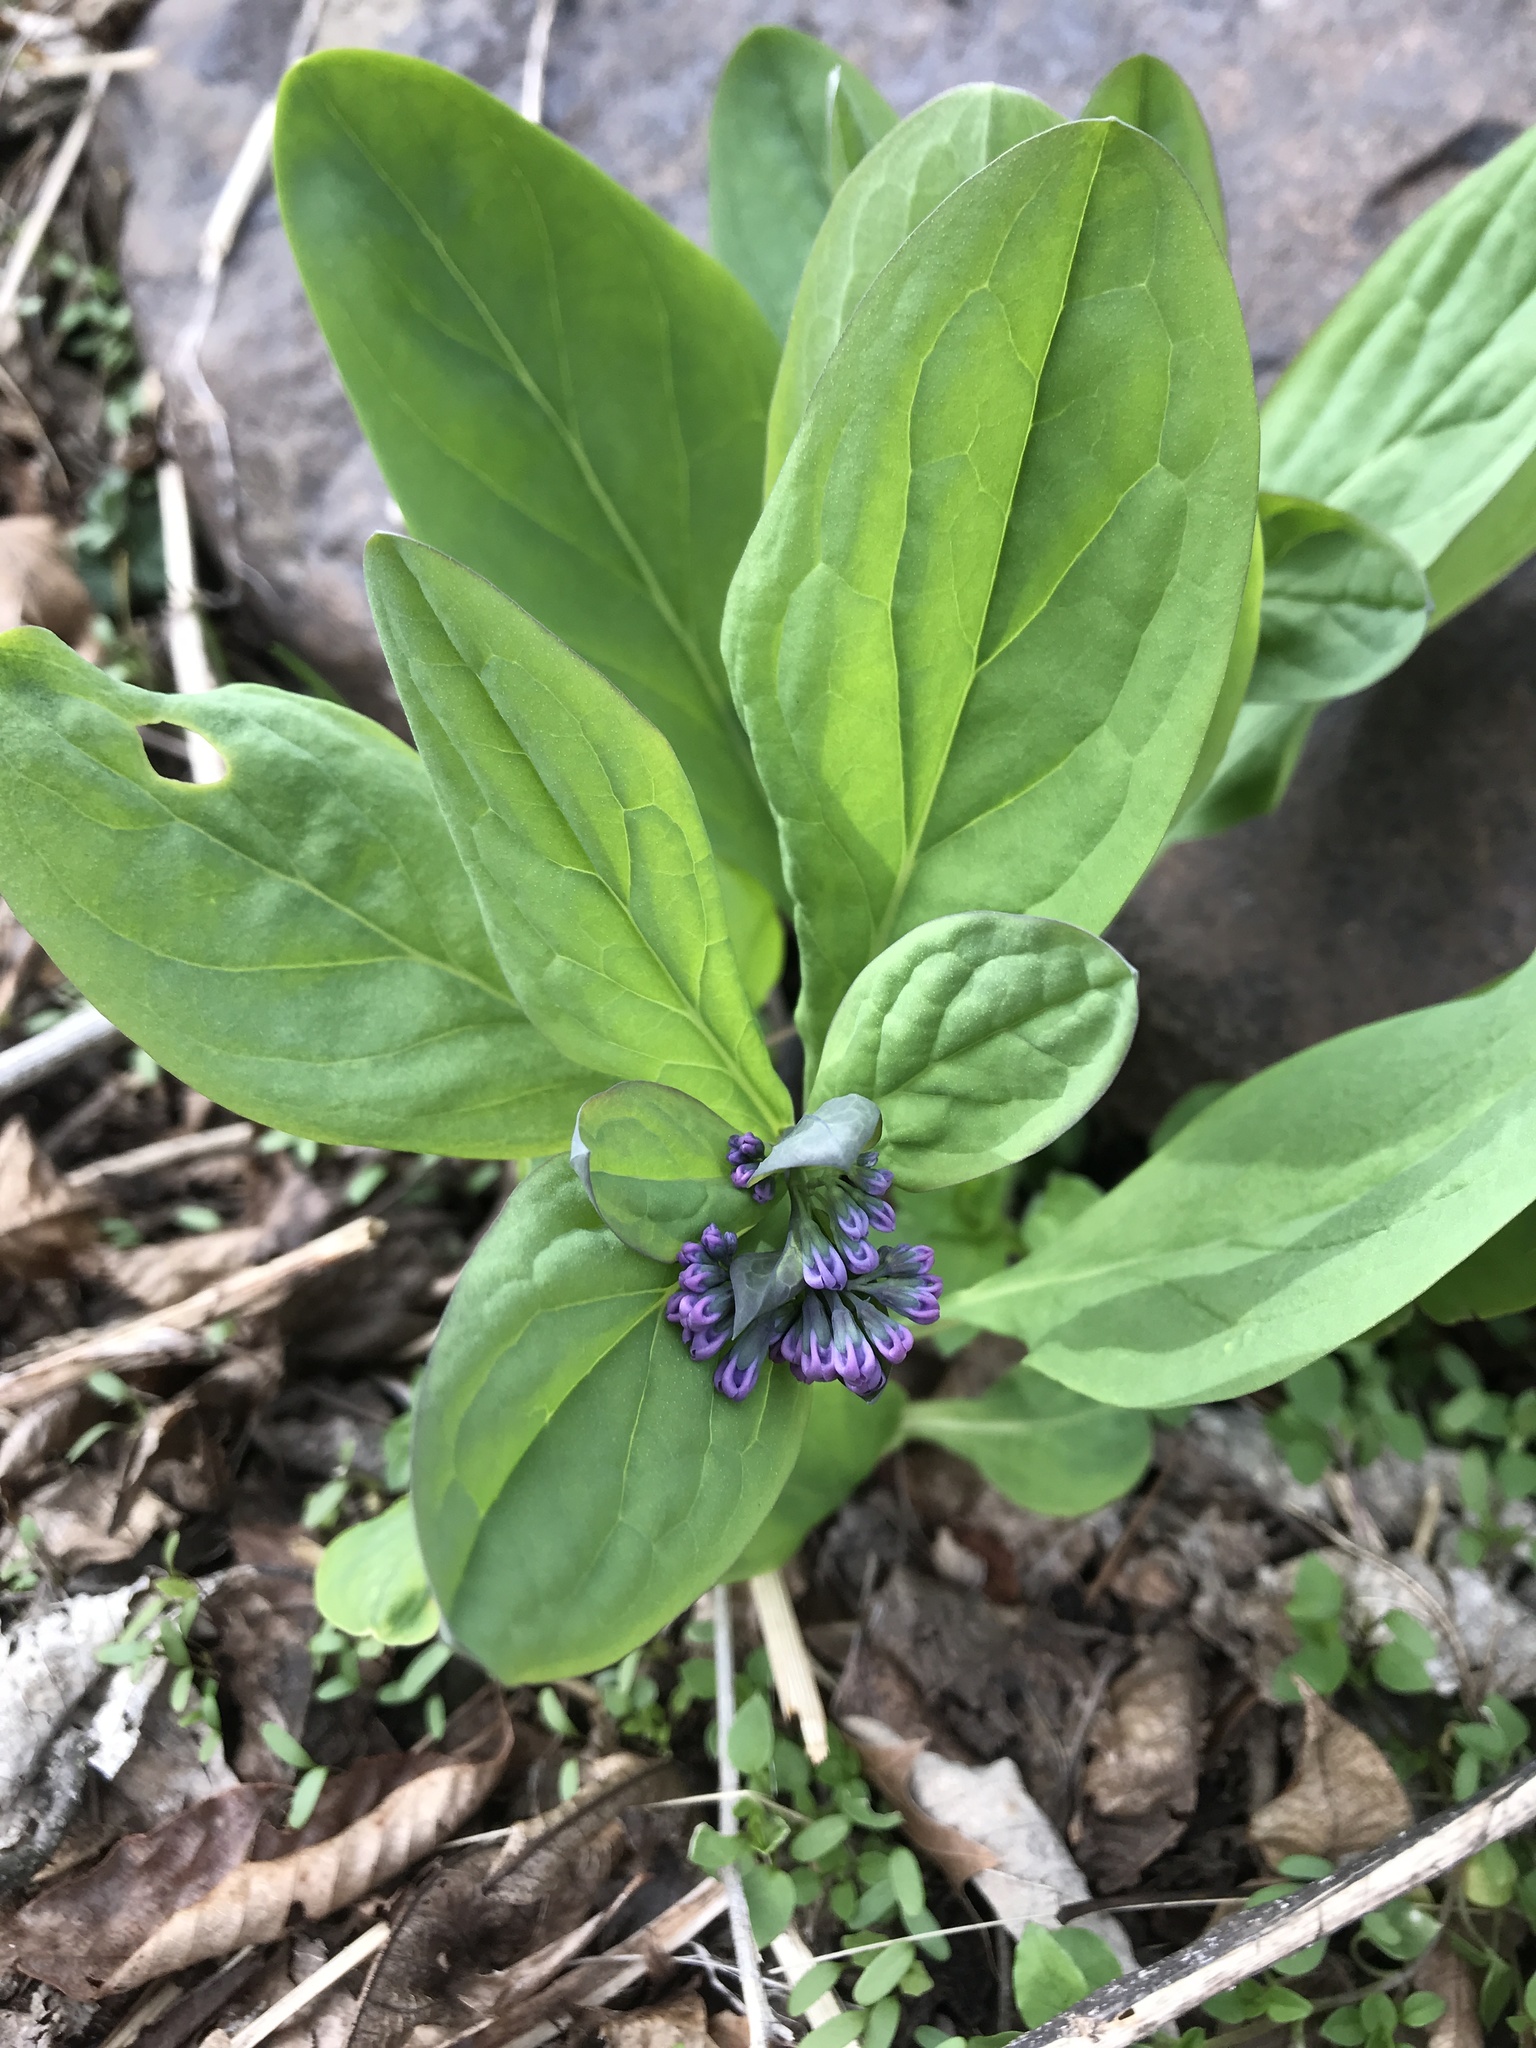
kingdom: Plantae
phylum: Tracheophyta
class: Magnoliopsida
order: Boraginales
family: Boraginaceae
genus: Mertensia
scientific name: Mertensia virginica
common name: Virginia bluebells
